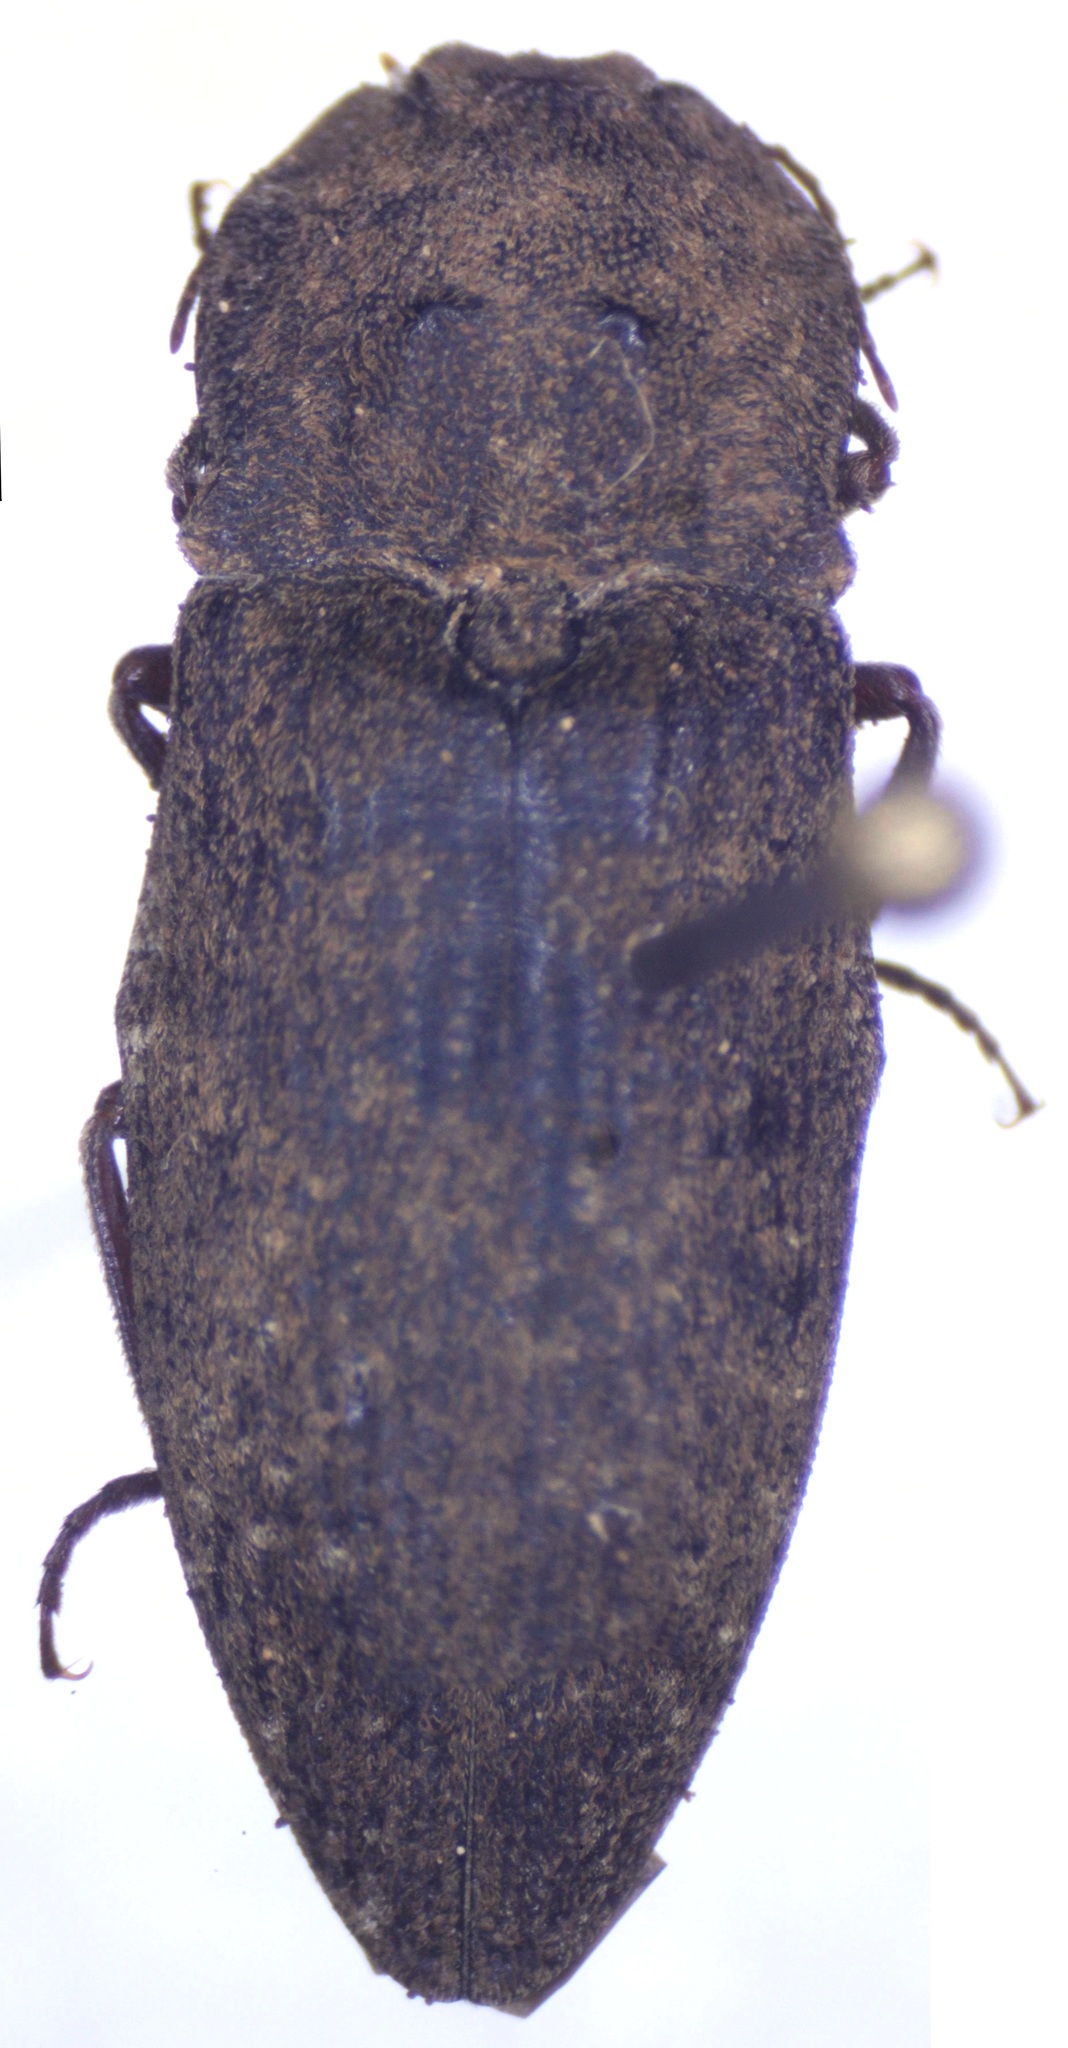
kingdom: Animalia
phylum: Arthropoda
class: Insecta
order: Coleoptera
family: Elateridae
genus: Agrypnus
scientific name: Agrypnus binodulus
